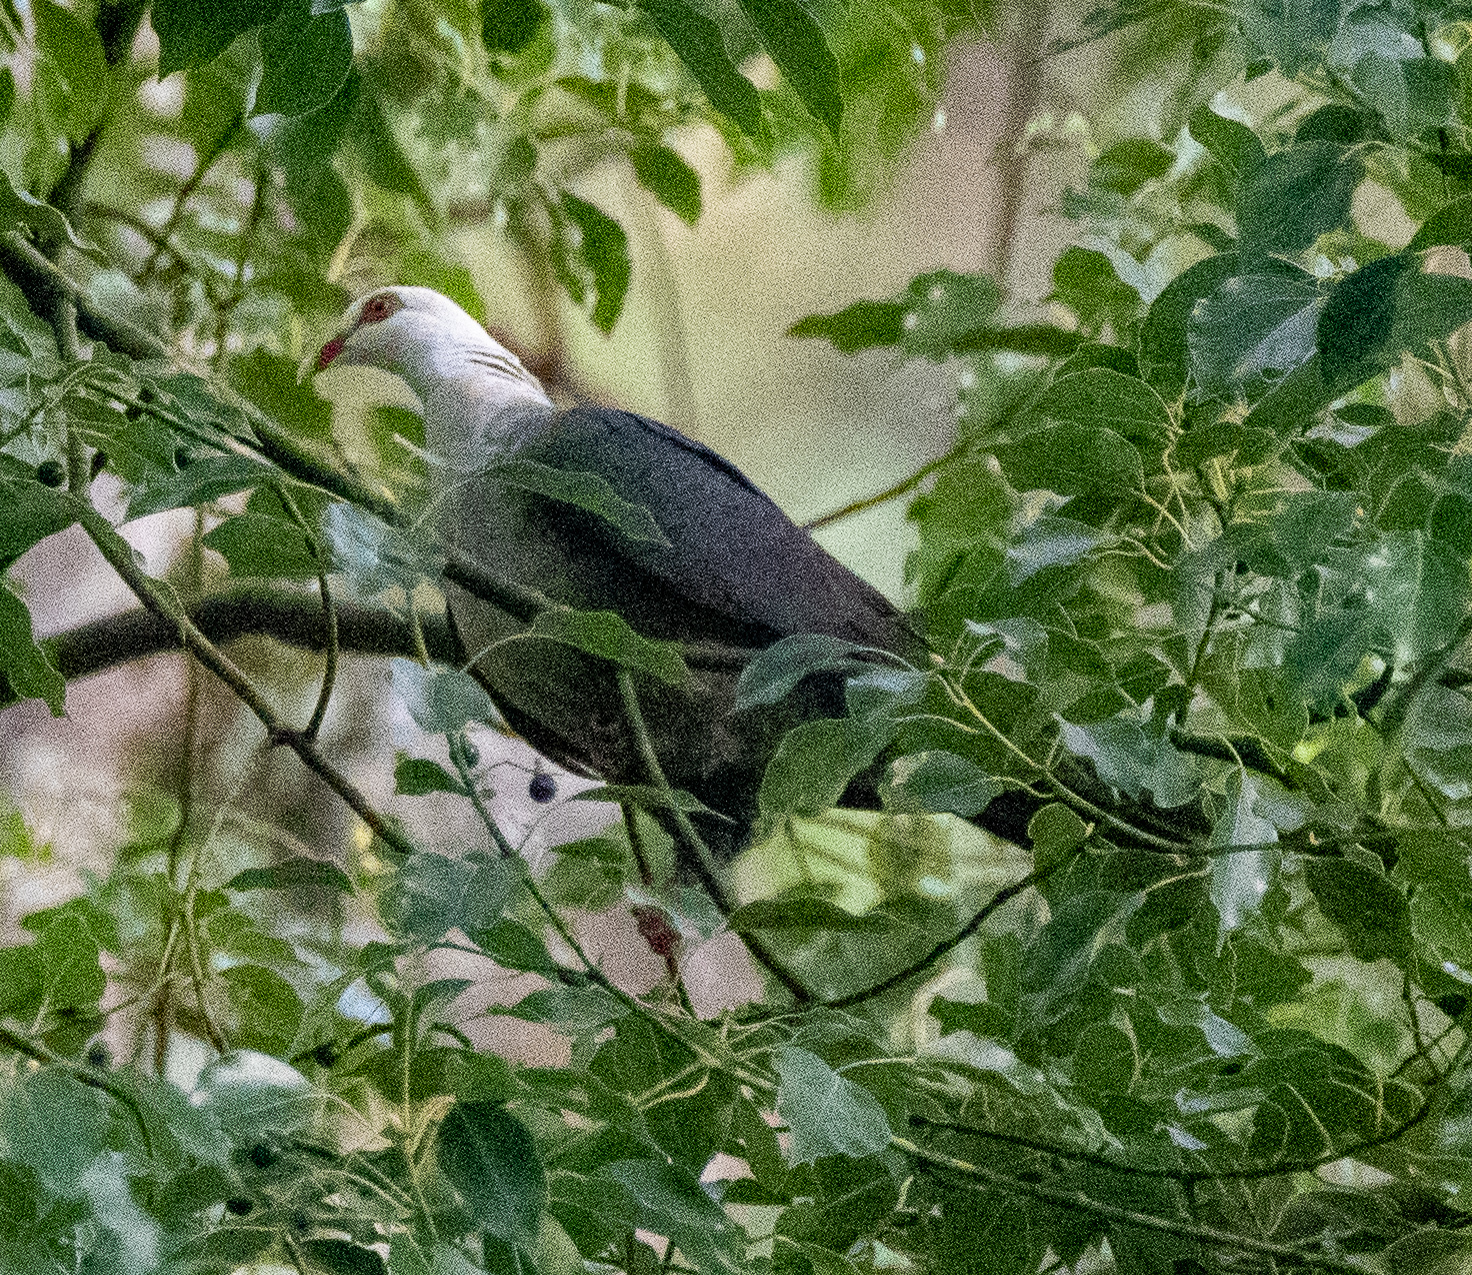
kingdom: Animalia
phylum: Chordata
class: Aves
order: Columbiformes
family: Columbidae
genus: Columba
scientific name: Columba leucomela
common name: White-headed pigeon
